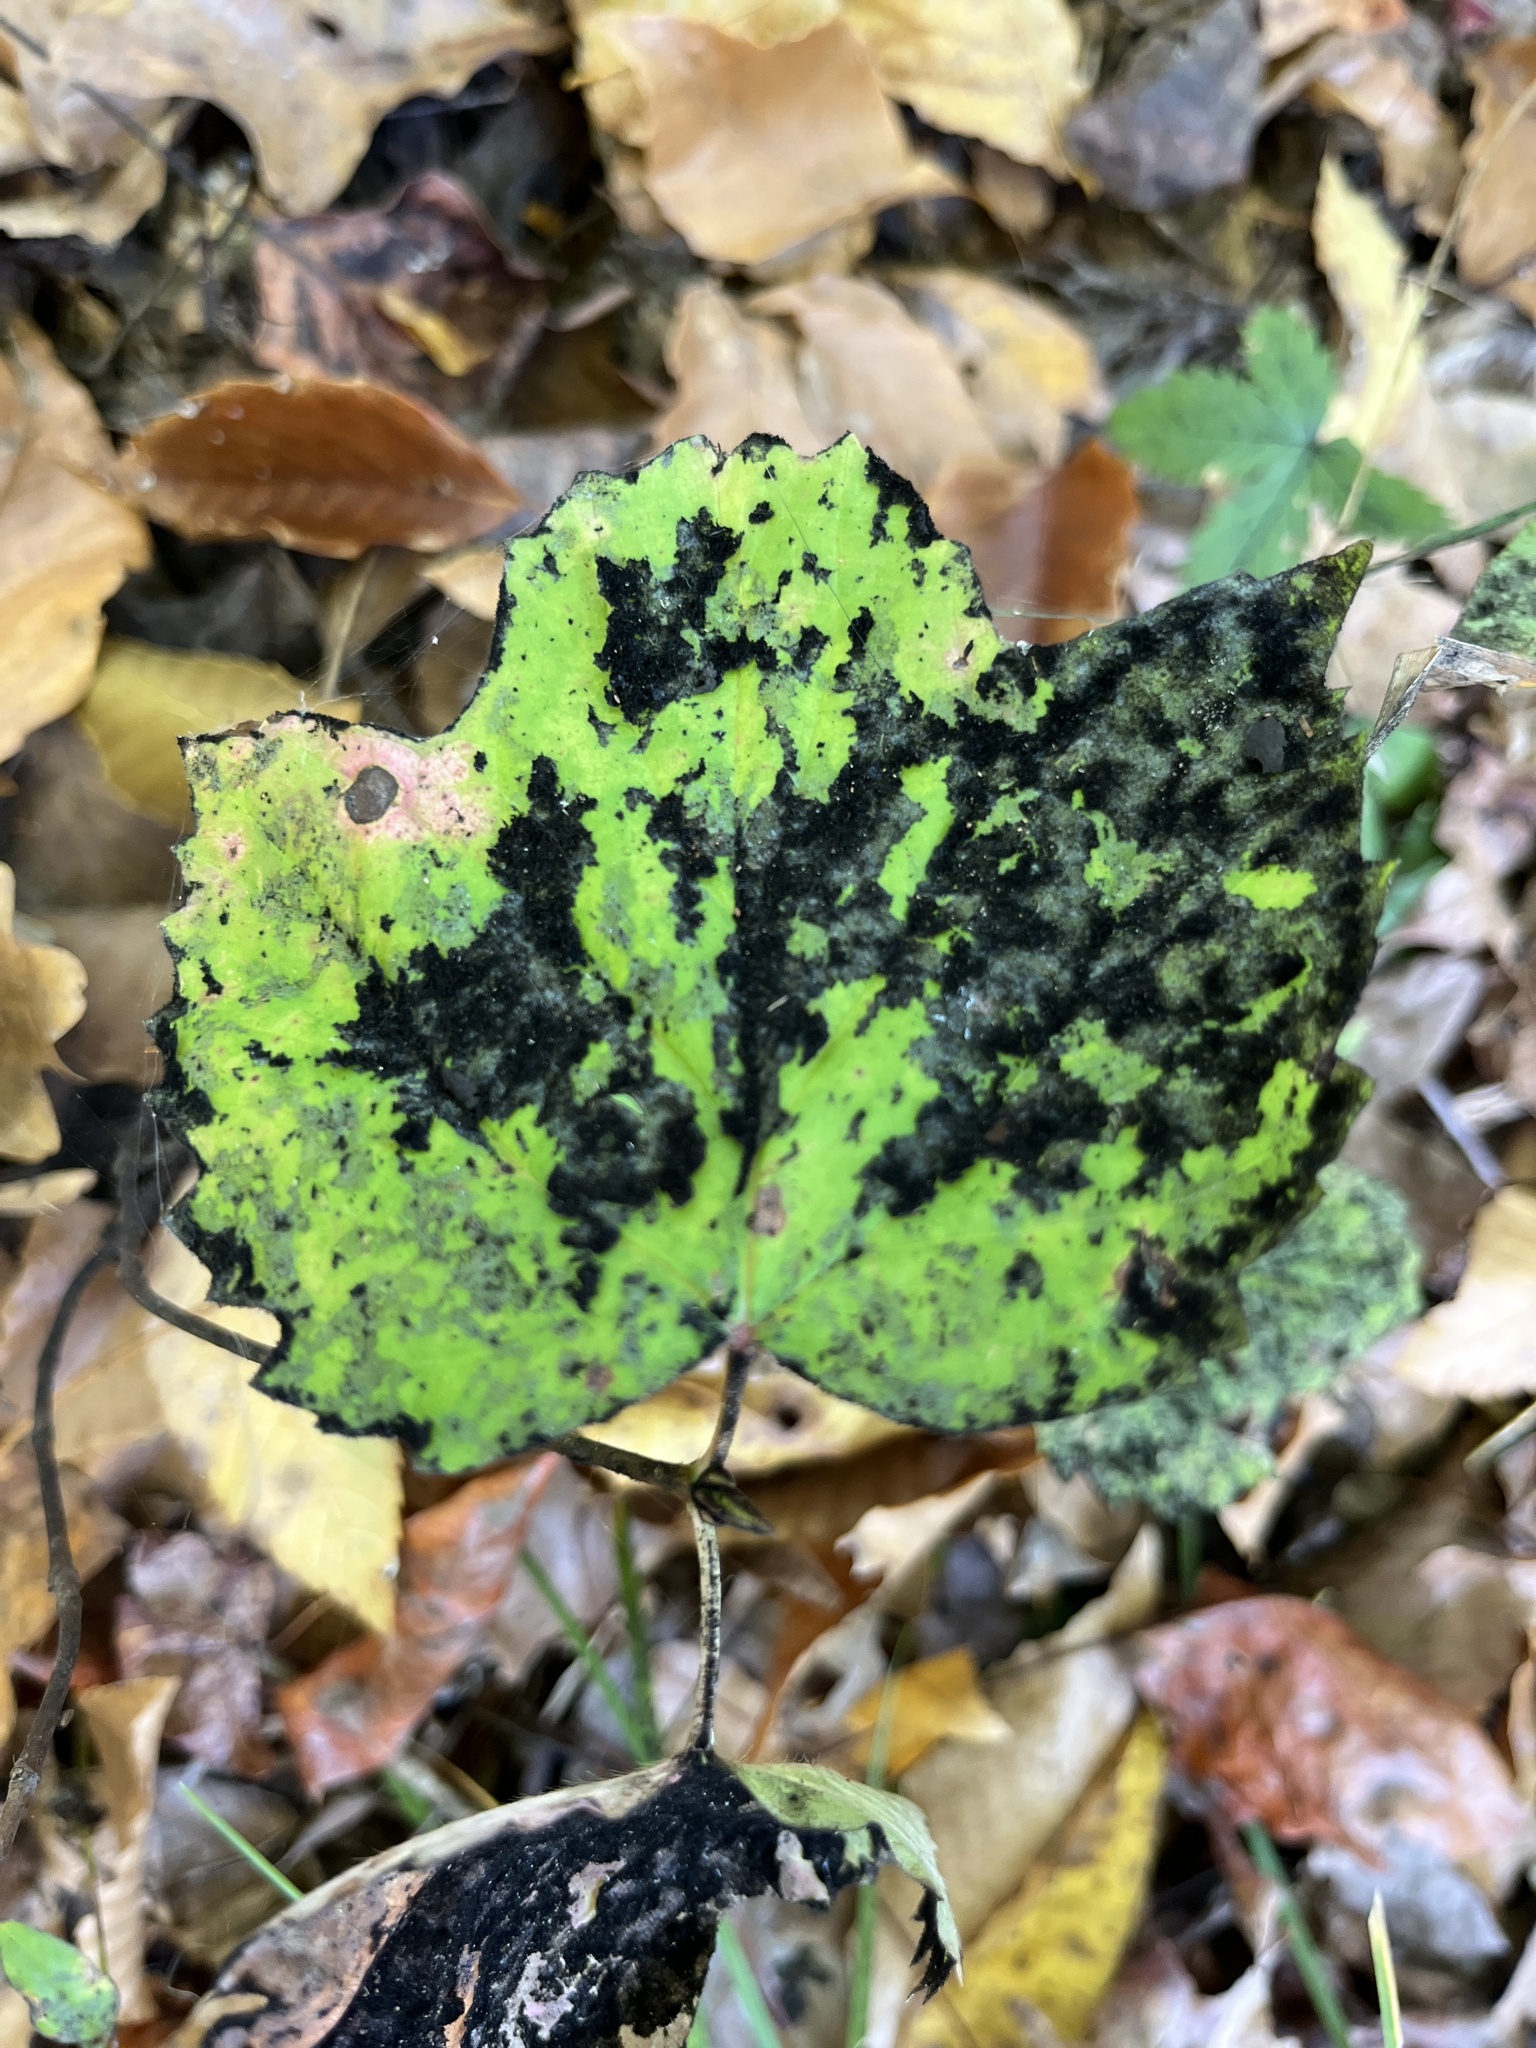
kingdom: Fungi
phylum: Ascomycota
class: Dothideomycetes
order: Capnodiales
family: Capnodiaceae
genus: Scorias
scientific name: Scorias spongiosa
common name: Black sooty mold
